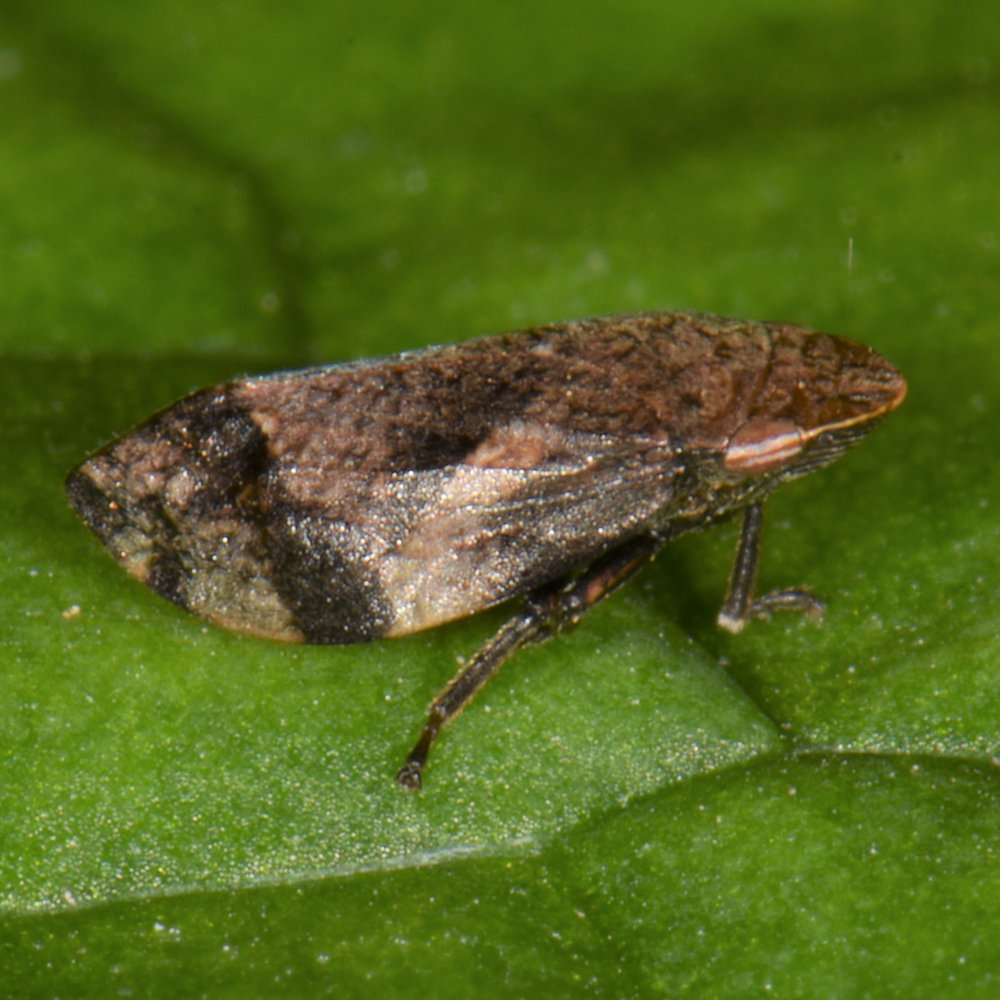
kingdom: Animalia
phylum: Arthropoda
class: Insecta
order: Hemiptera
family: Aphrophoridae
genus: Lepyronia
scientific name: Lepyronia quadrangularis
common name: Diamond-backed spittlebug
